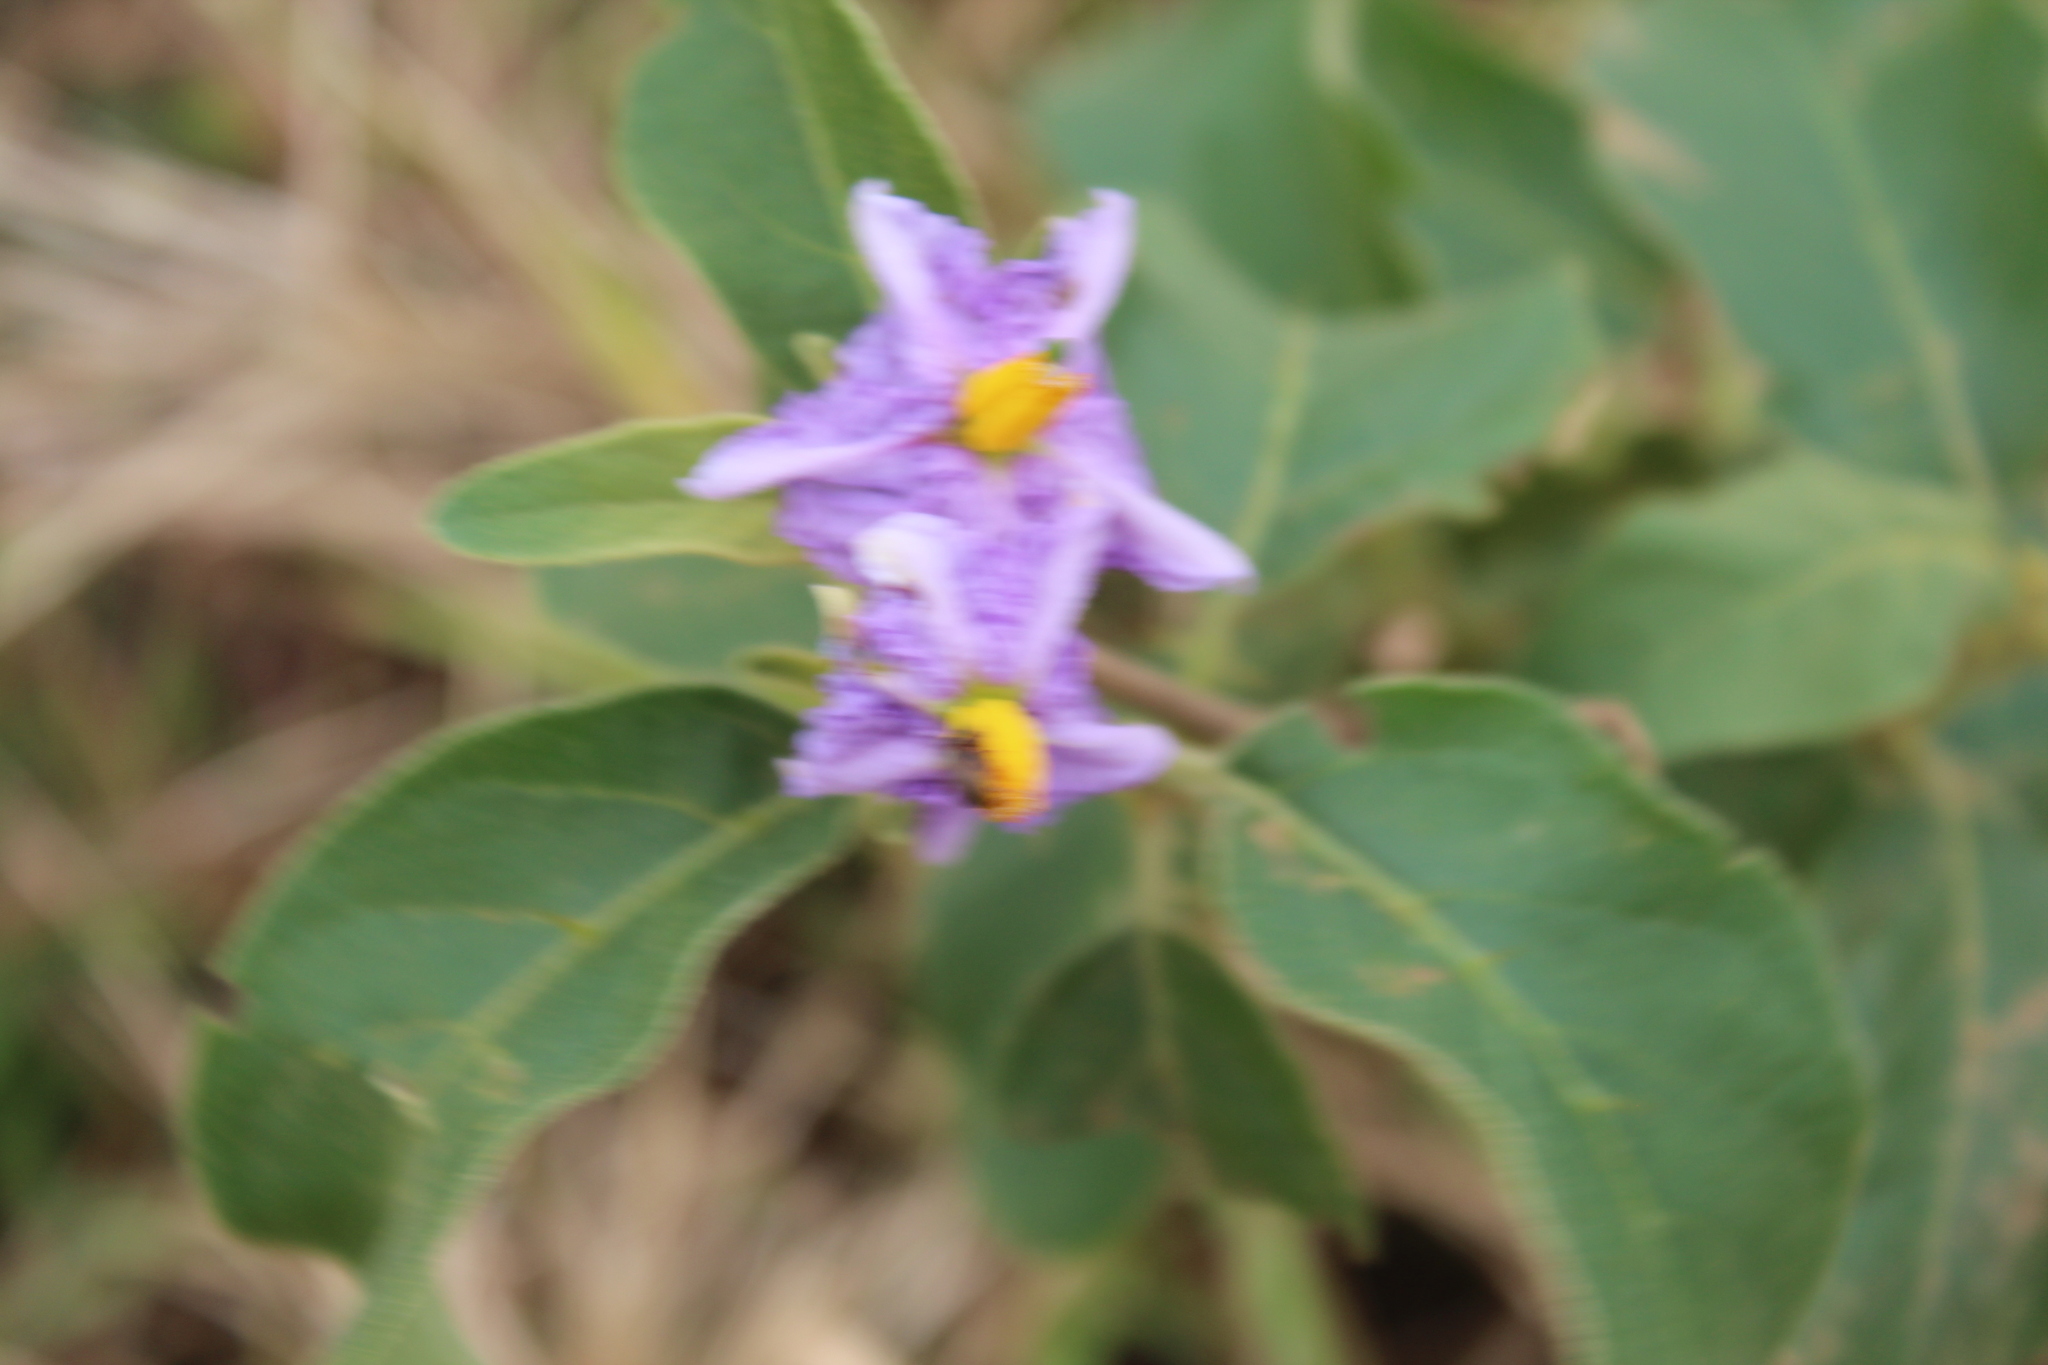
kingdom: Plantae
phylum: Tracheophyta
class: Magnoliopsida
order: Solanales
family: Solanaceae
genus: Solanum
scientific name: Solanum campylacanthum
